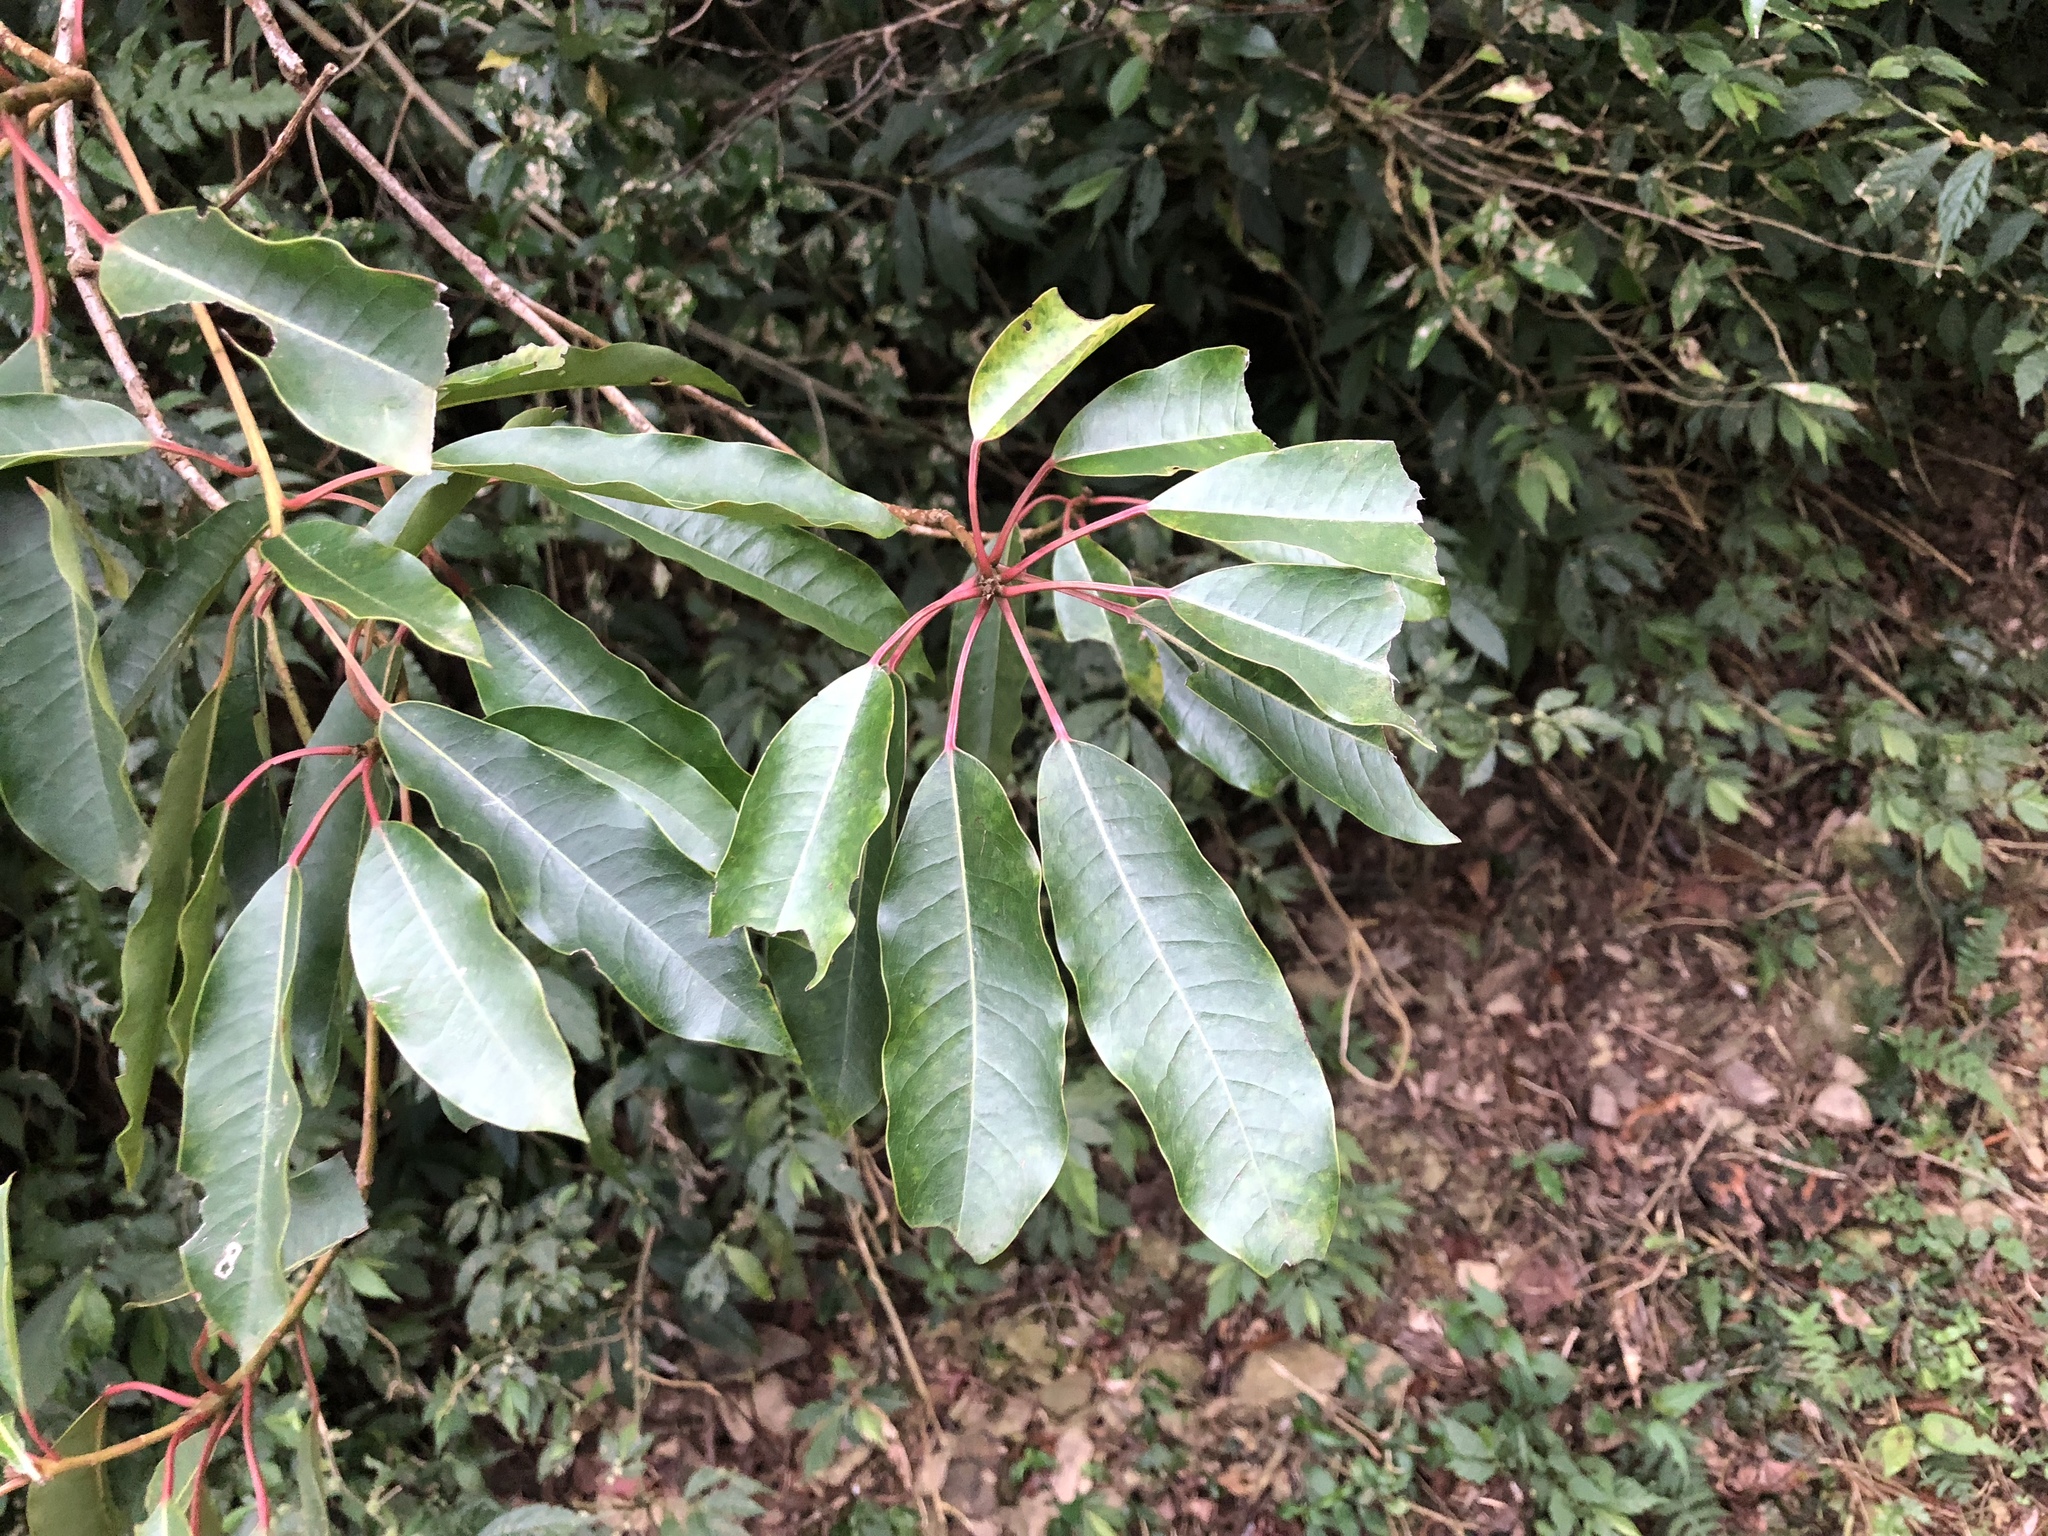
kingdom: Plantae
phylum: Tracheophyta
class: Magnoliopsida
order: Saxifragales
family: Daphniphyllaceae
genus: Daphniphyllum
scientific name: Daphniphyllum pentandrum
